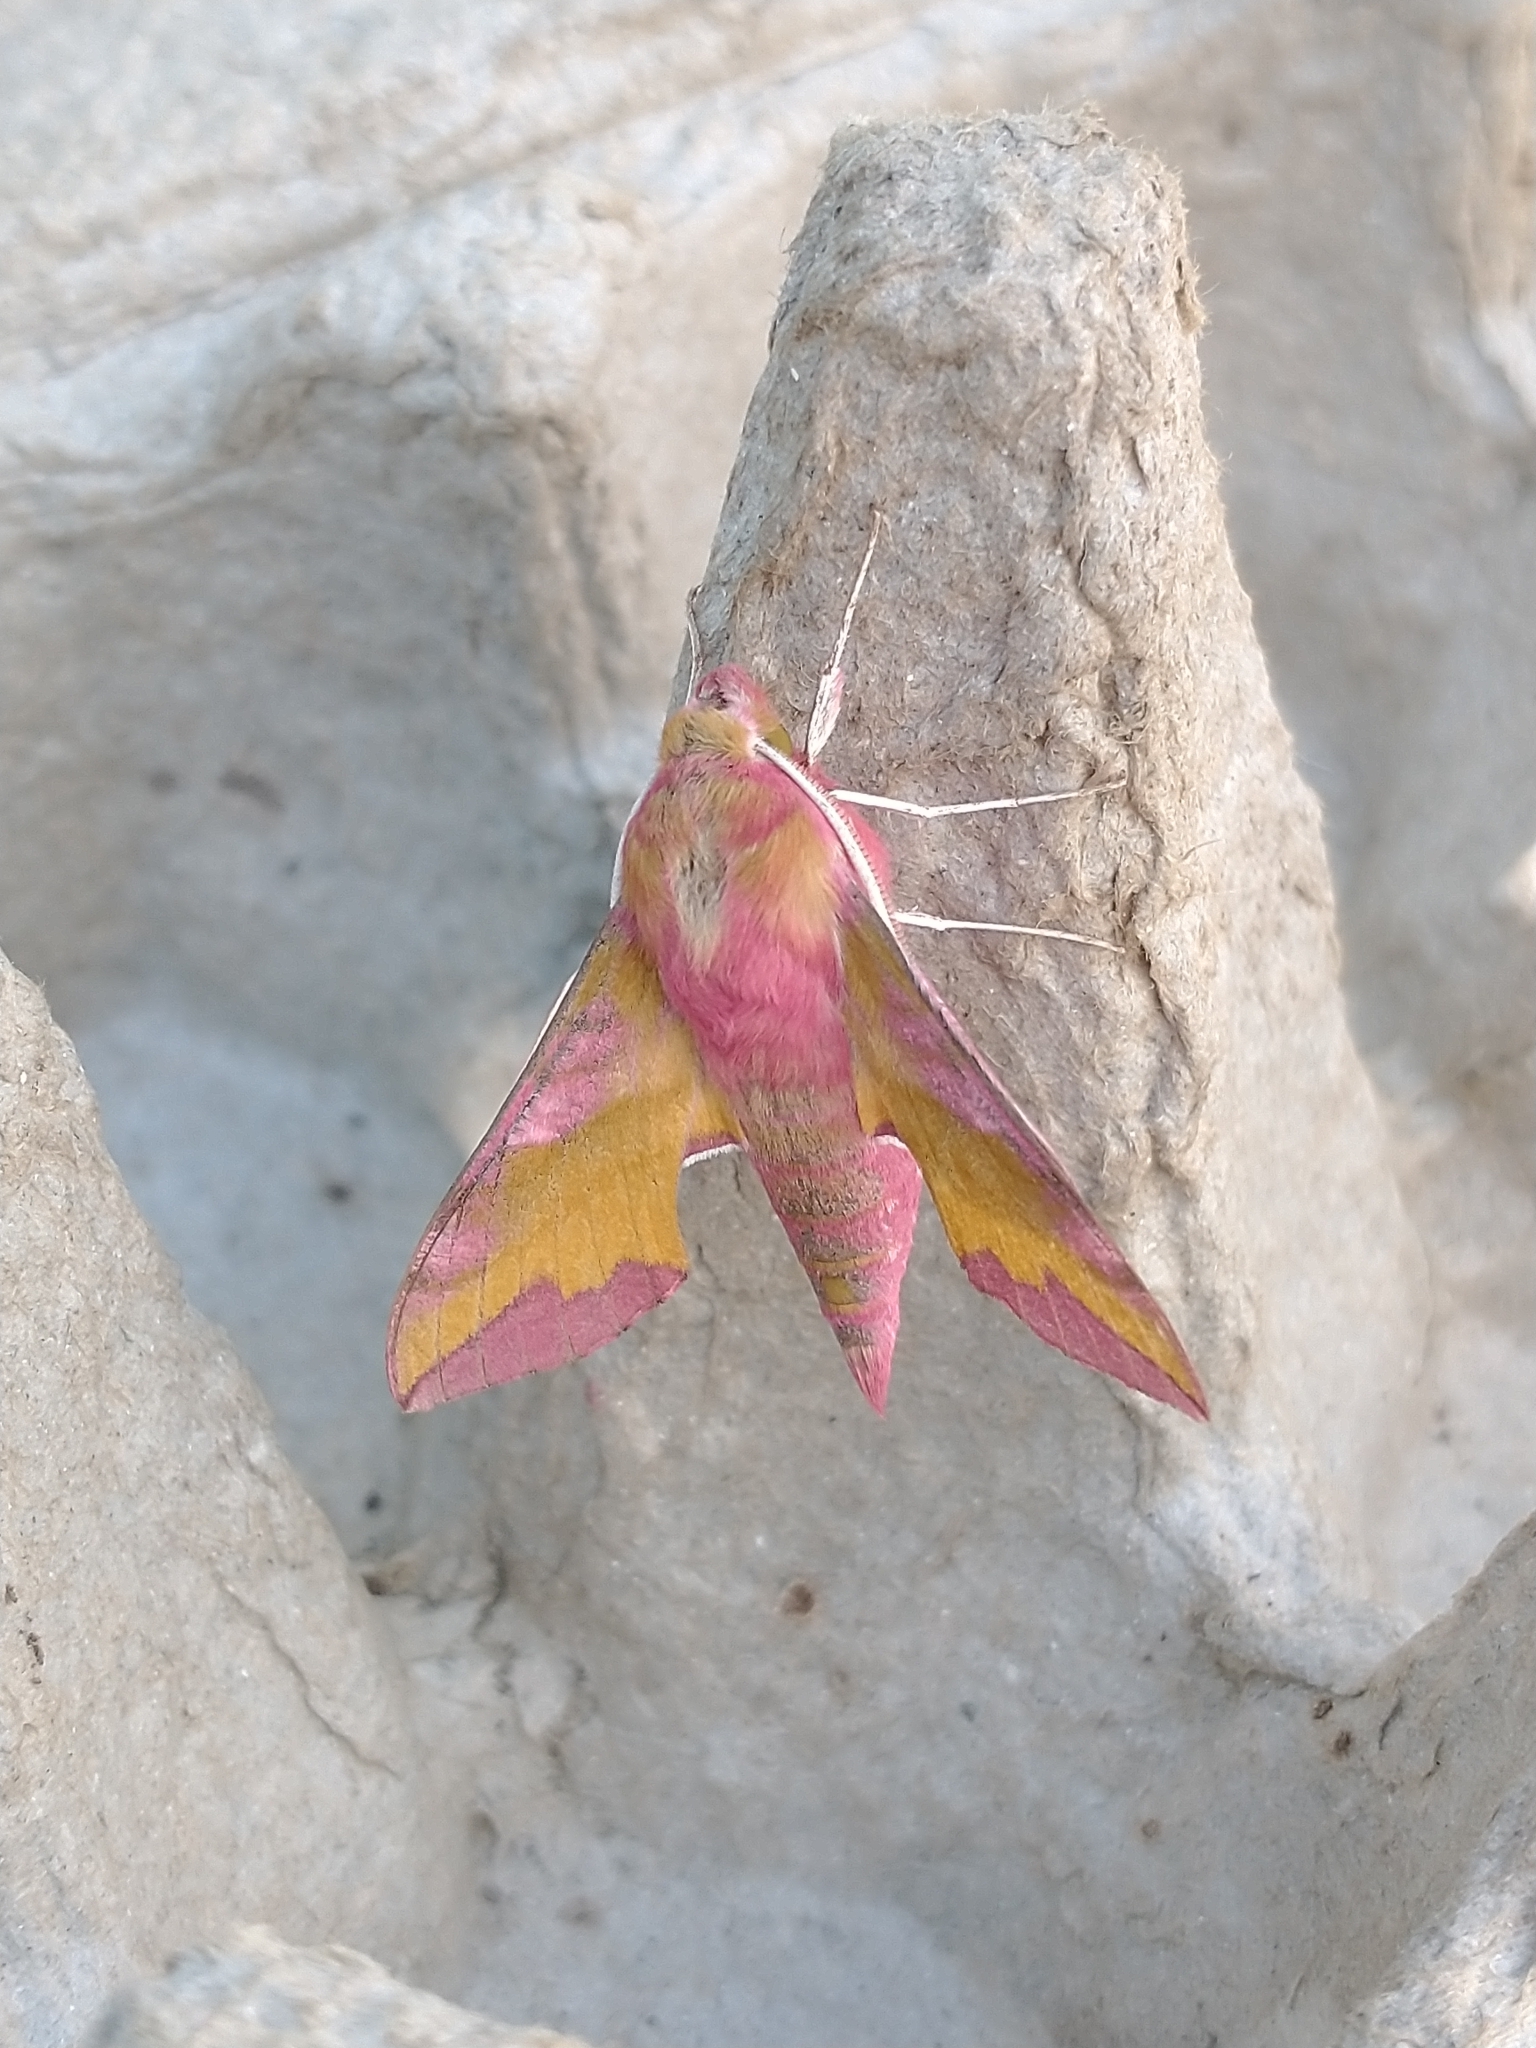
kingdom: Animalia
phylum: Arthropoda
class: Insecta
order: Lepidoptera
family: Sphingidae
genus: Deilephila
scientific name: Deilephila porcellus
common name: Small elephant hawk-moth
